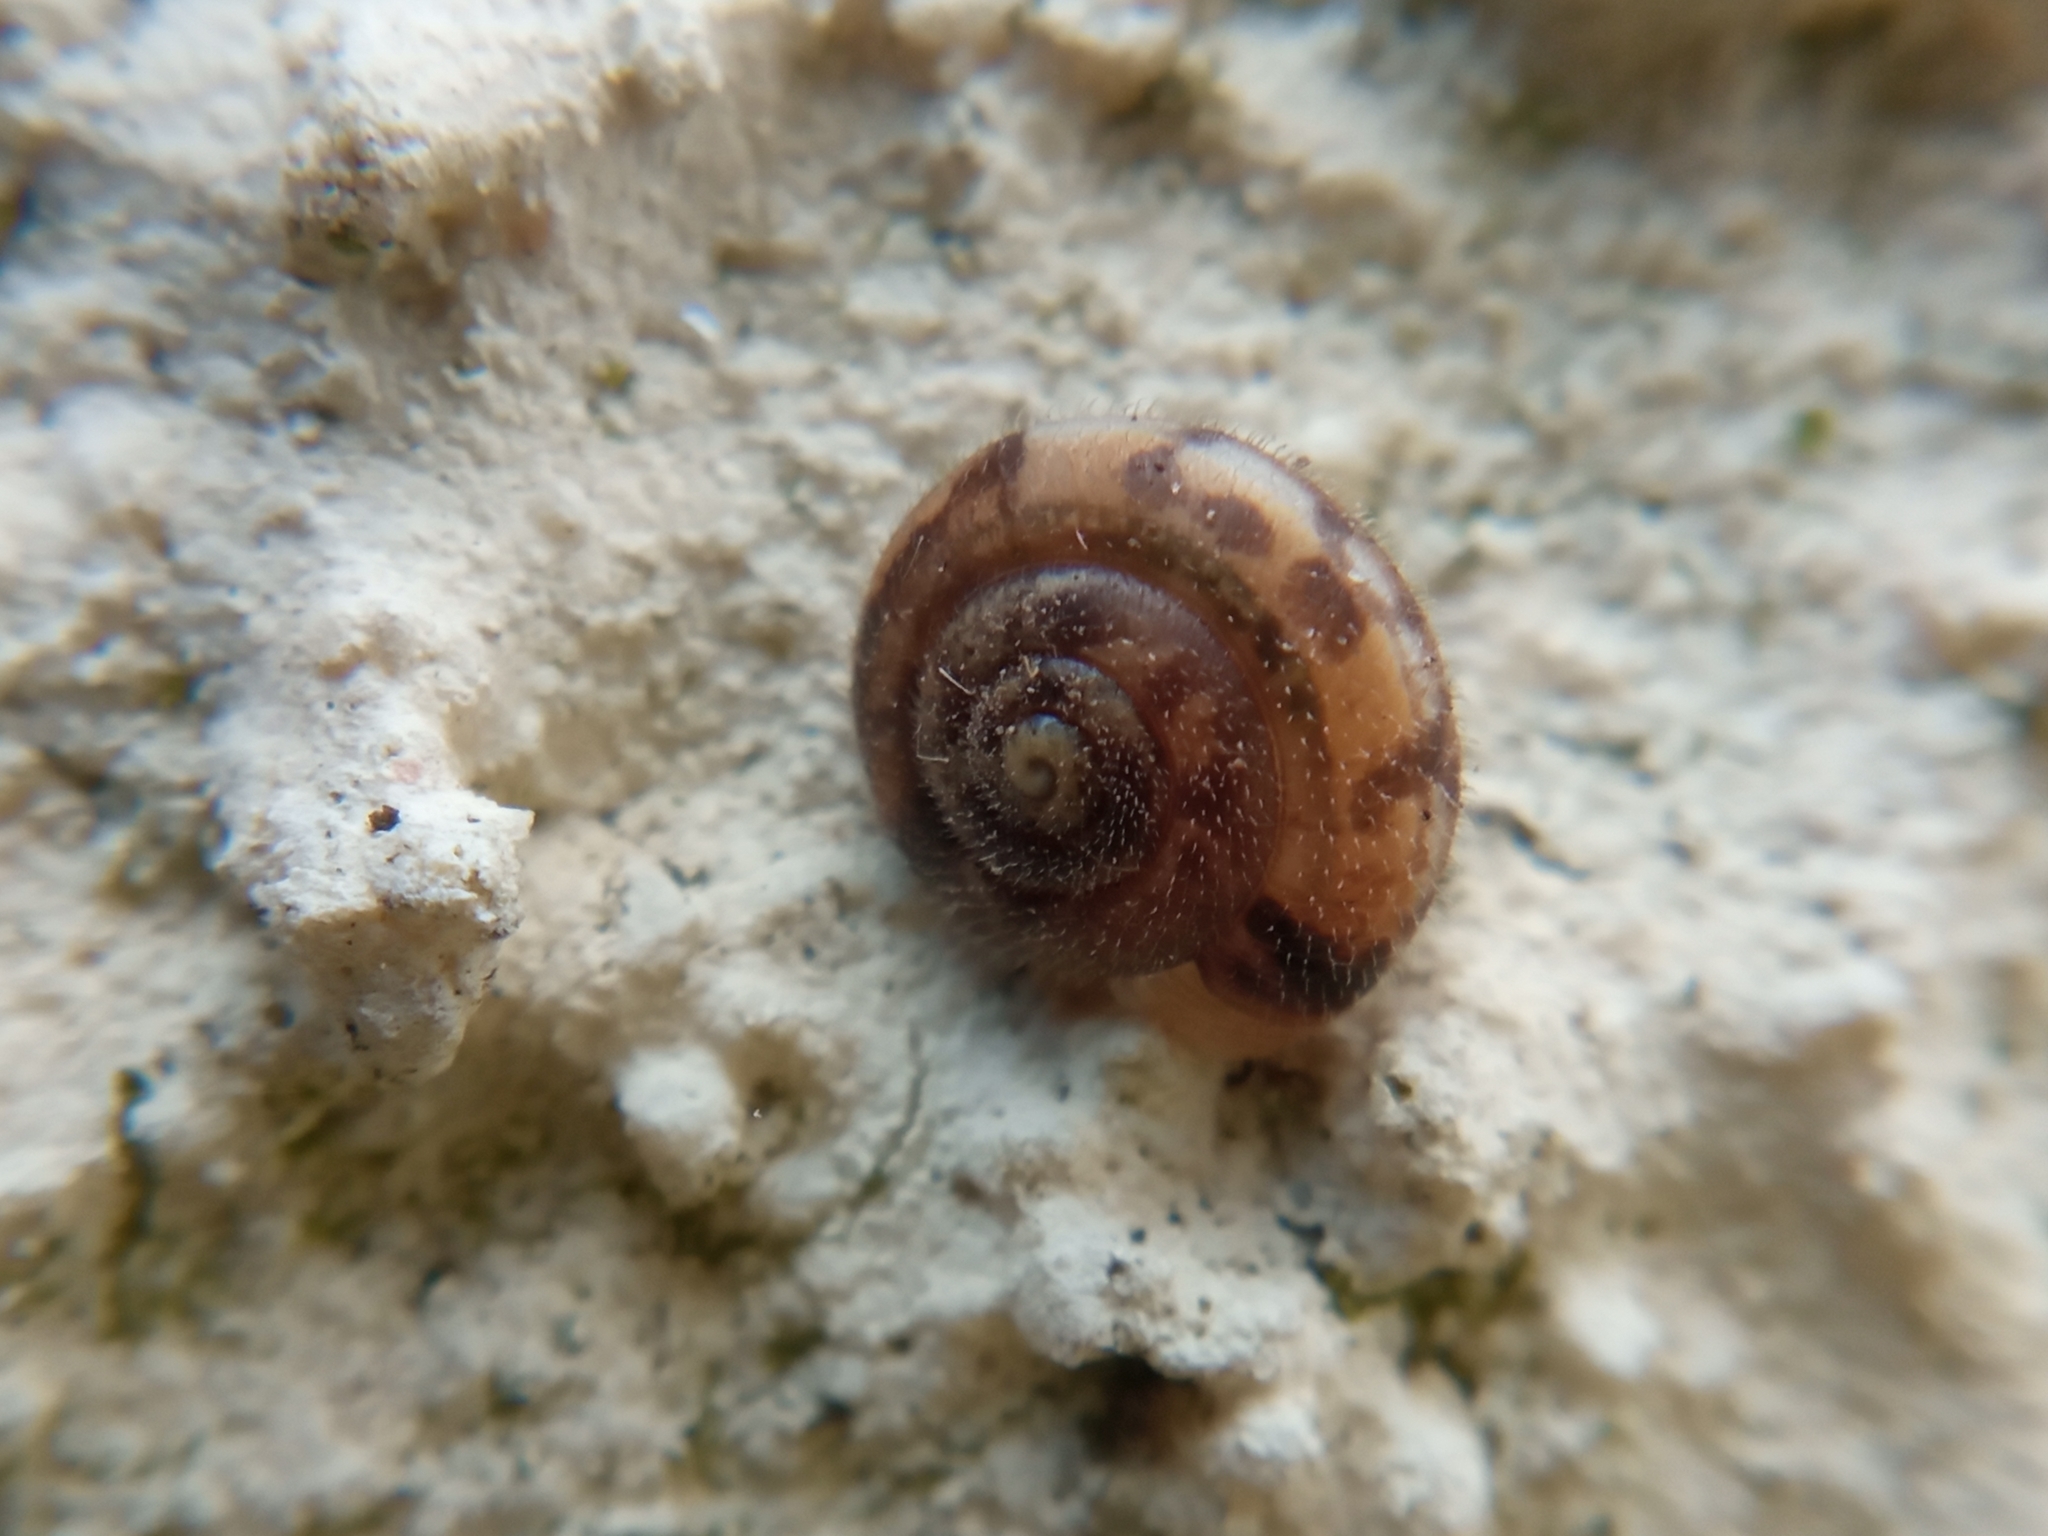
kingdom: Animalia
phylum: Mollusca
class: Gastropoda
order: Stylommatophora
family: Hygromiidae
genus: Trochulus
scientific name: Trochulus hispidus
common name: Hairy snail
